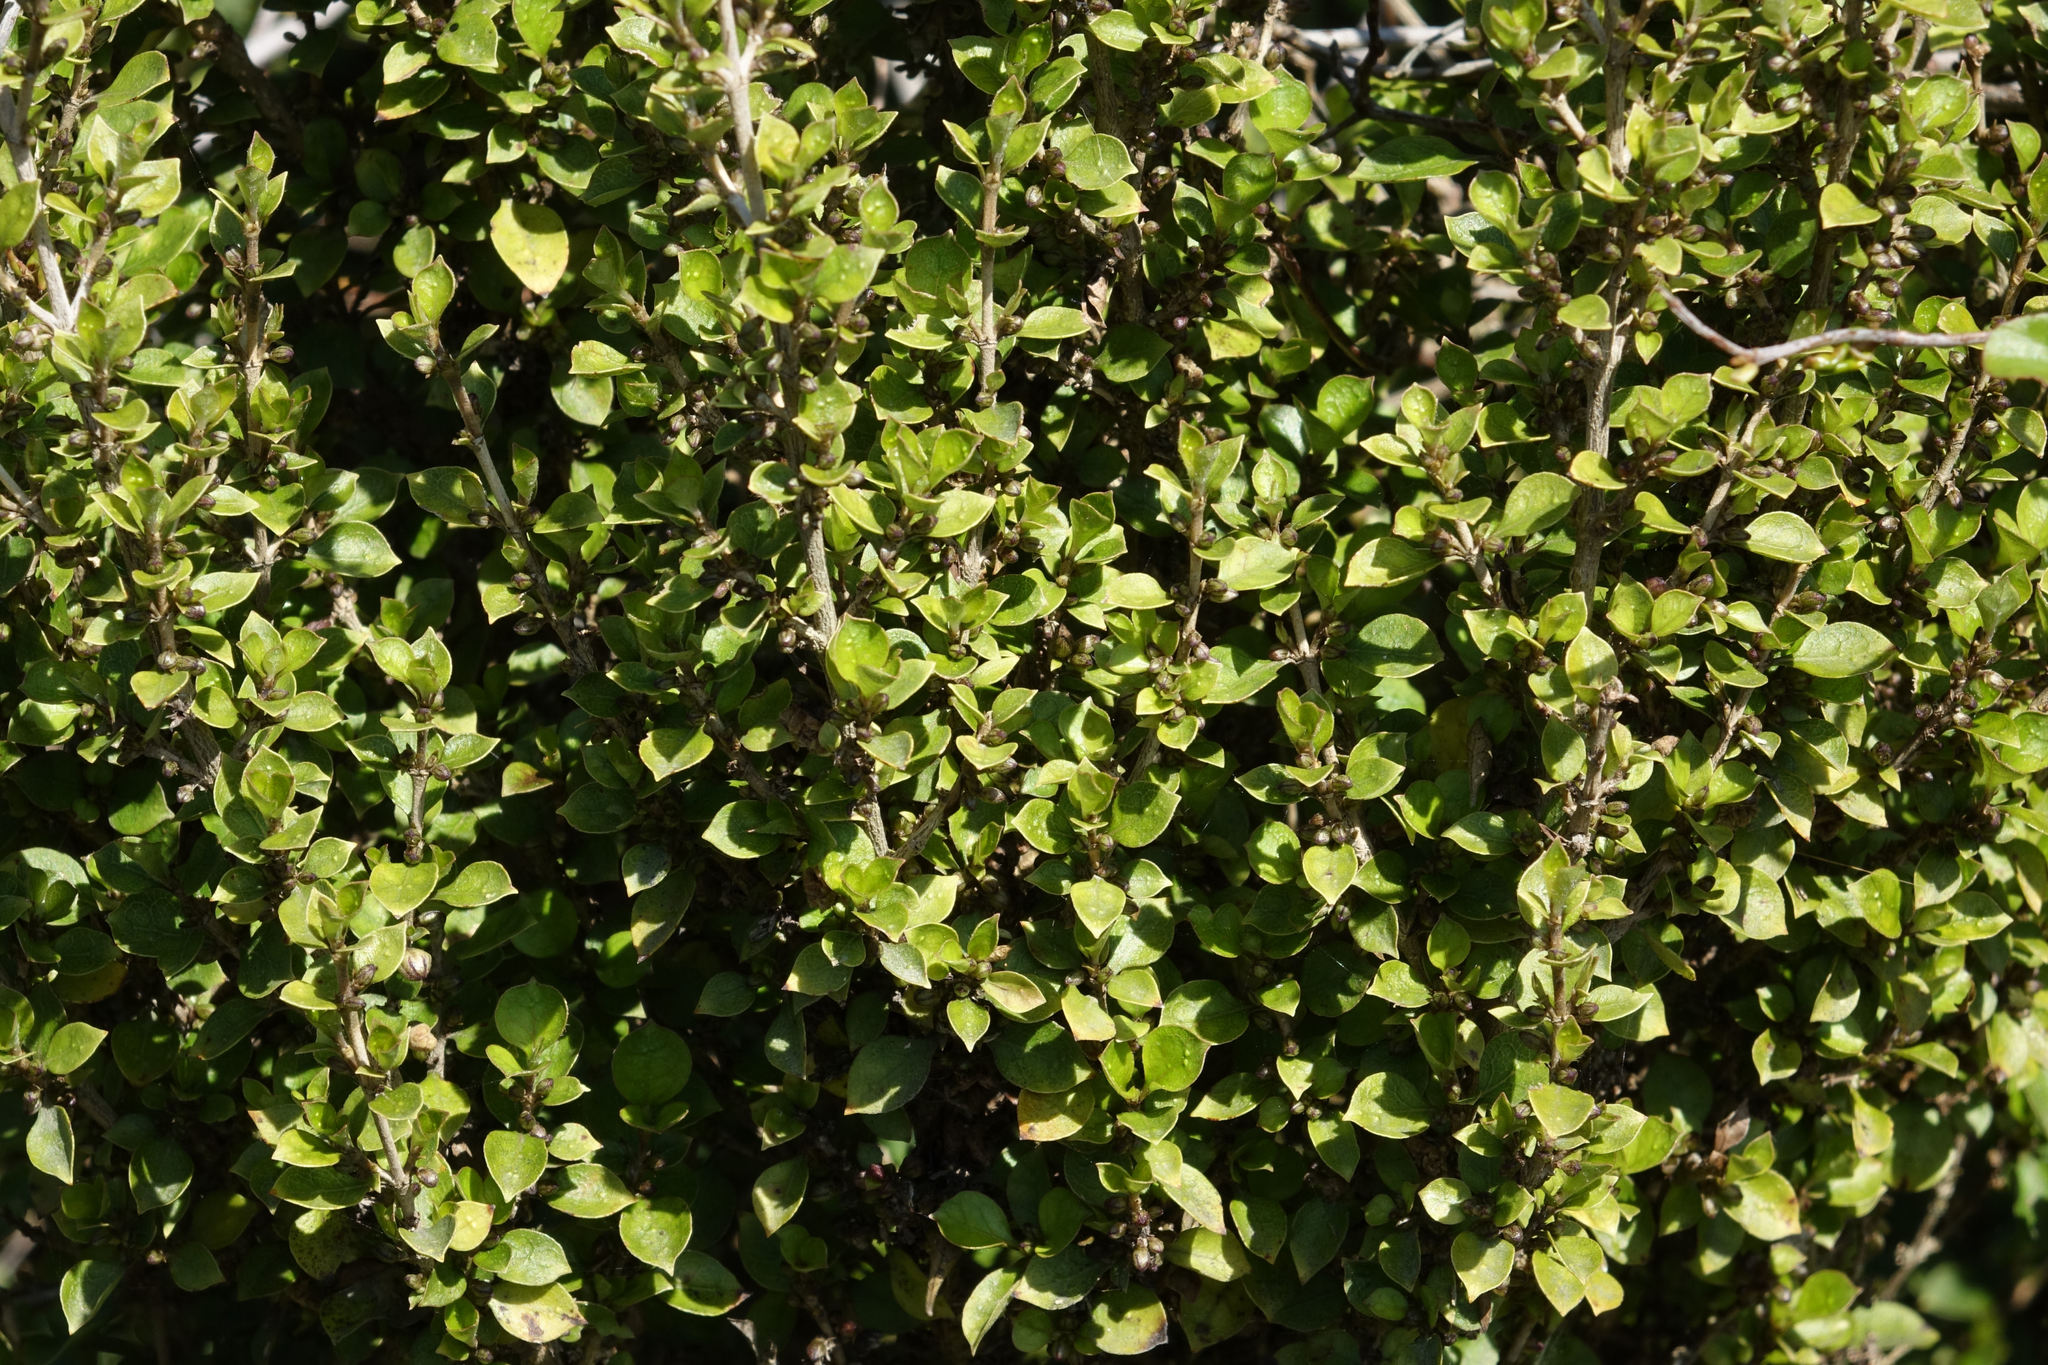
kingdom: Plantae
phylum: Tracheophyta
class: Magnoliopsida
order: Gentianales
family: Rubiaceae
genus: Coprosma
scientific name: Coprosma areolata
